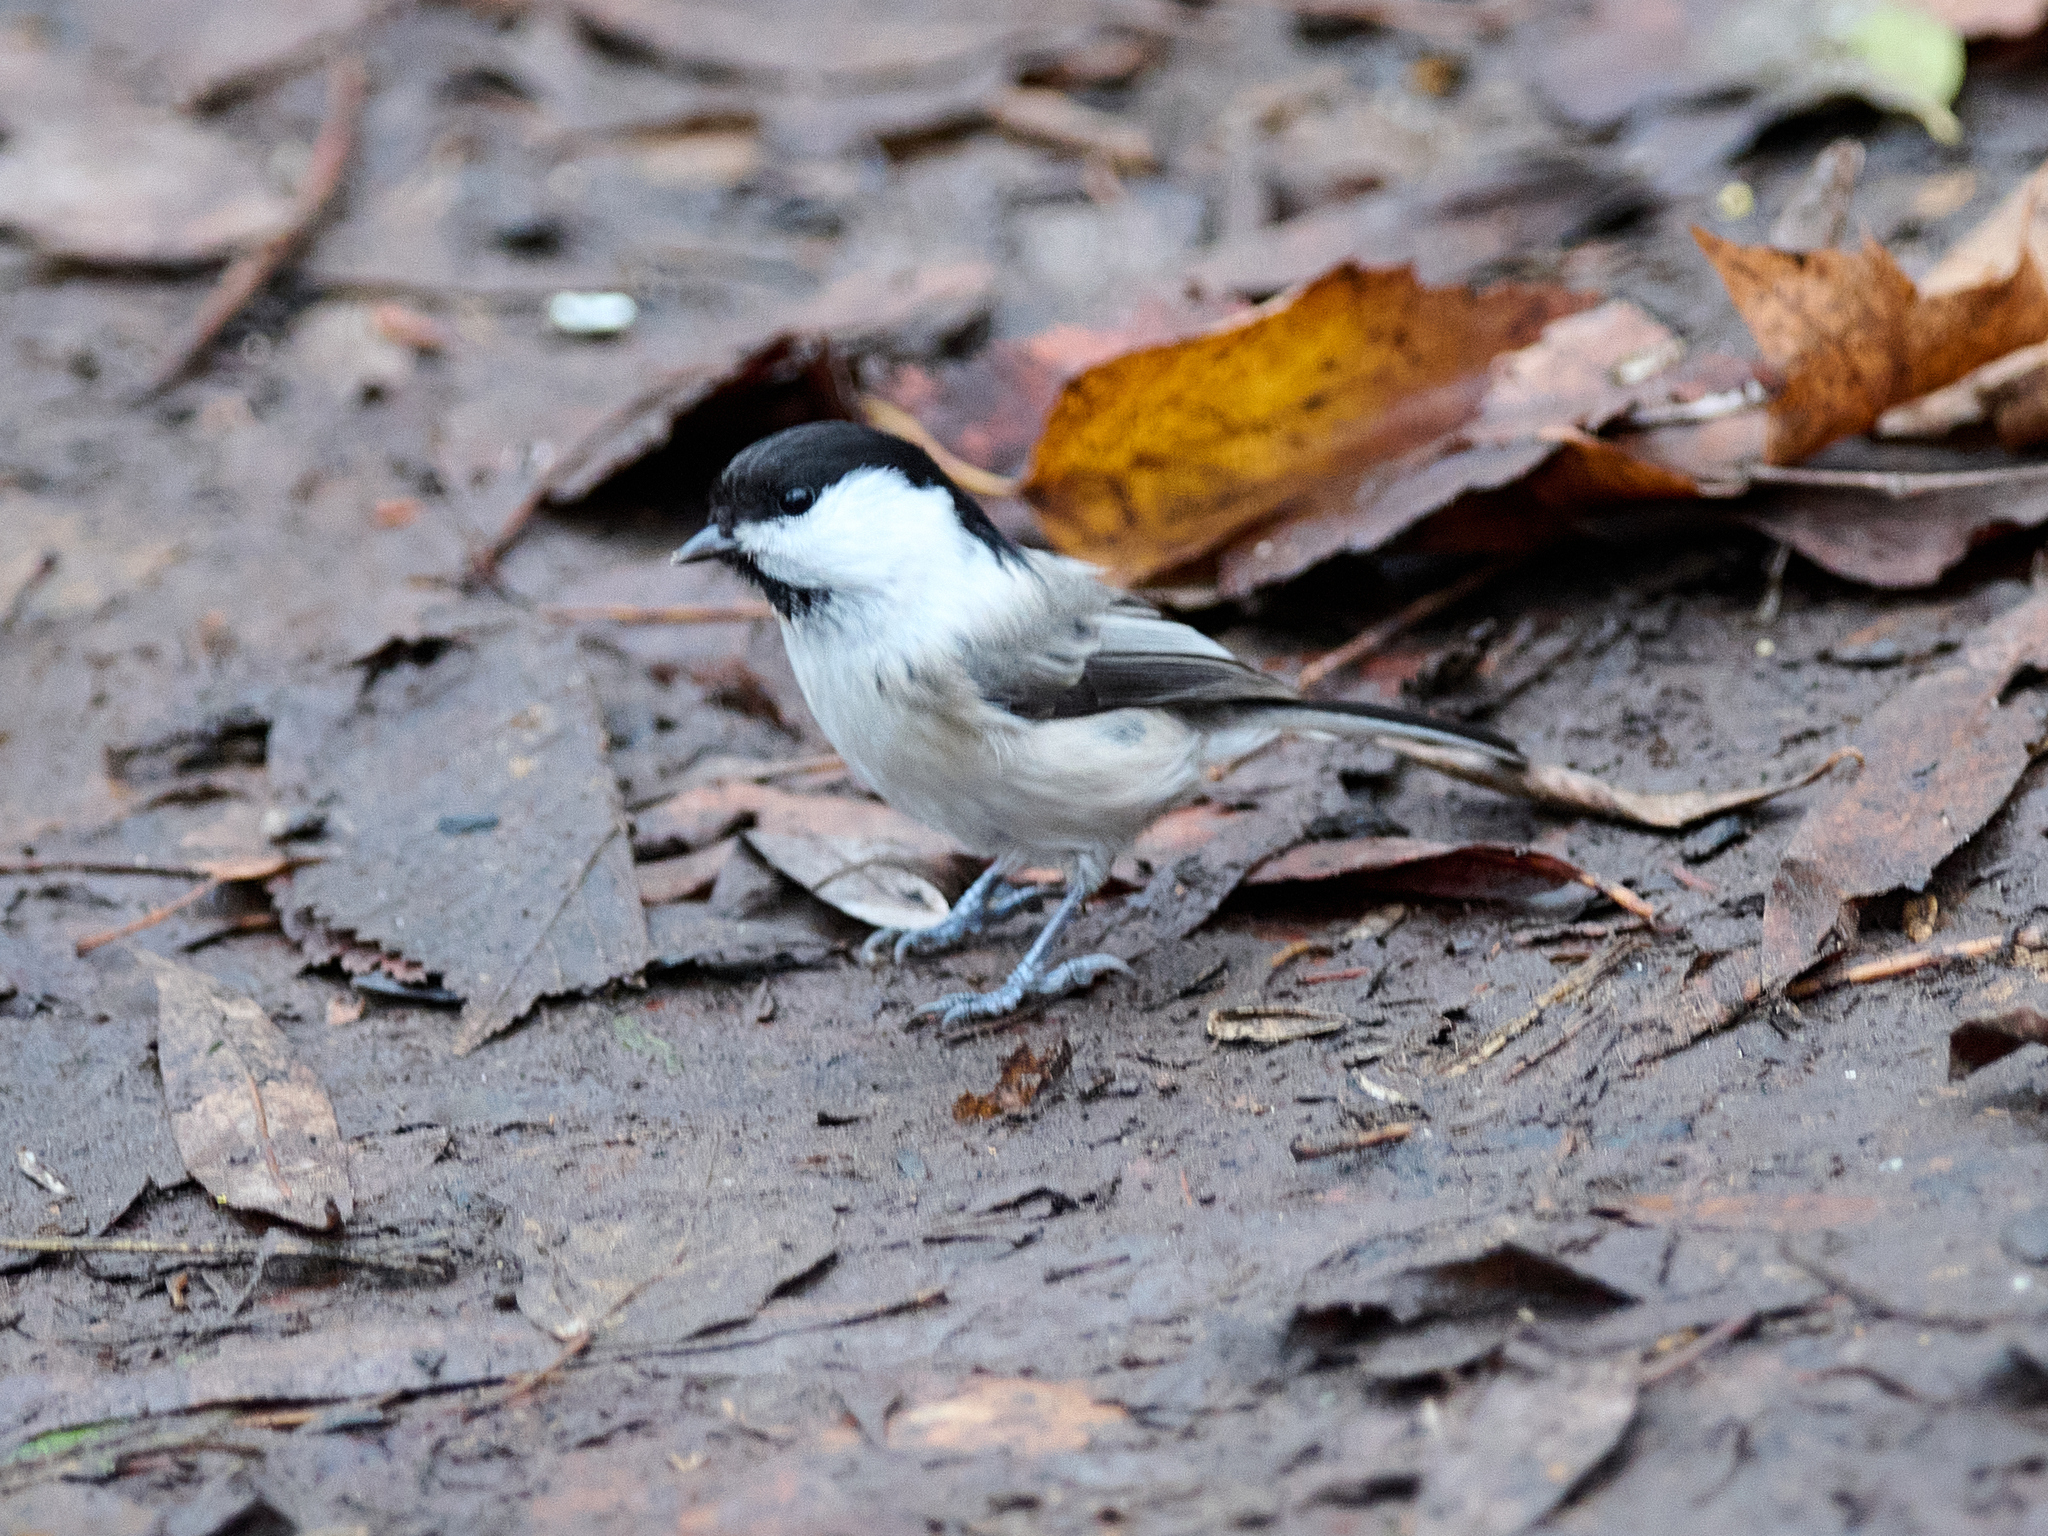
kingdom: Animalia
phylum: Chordata
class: Aves
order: Passeriformes
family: Paridae
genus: Poecile
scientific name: Poecile montanus
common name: Willow tit
